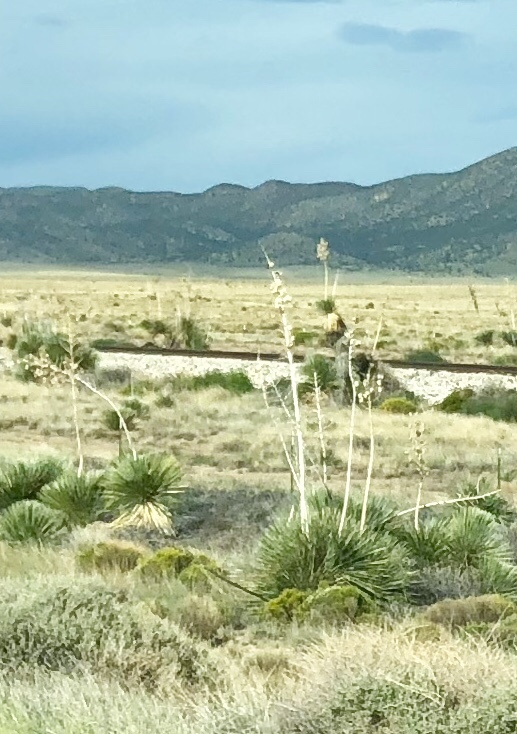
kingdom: Plantae
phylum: Tracheophyta
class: Liliopsida
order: Asparagales
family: Asparagaceae
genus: Yucca
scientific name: Yucca elata
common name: Palmella
